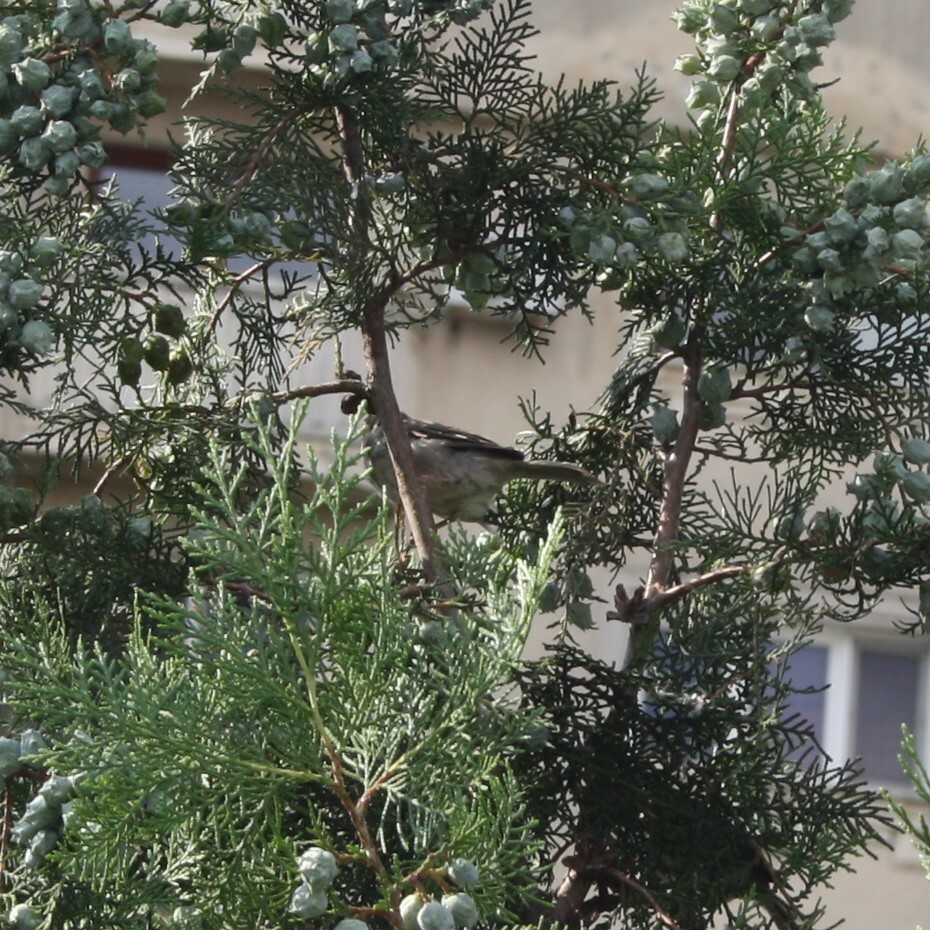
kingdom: Animalia
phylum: Chordata
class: Aves
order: Passeriformes
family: Passeridae
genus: Passer
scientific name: Passer domesticus
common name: House sparrow
